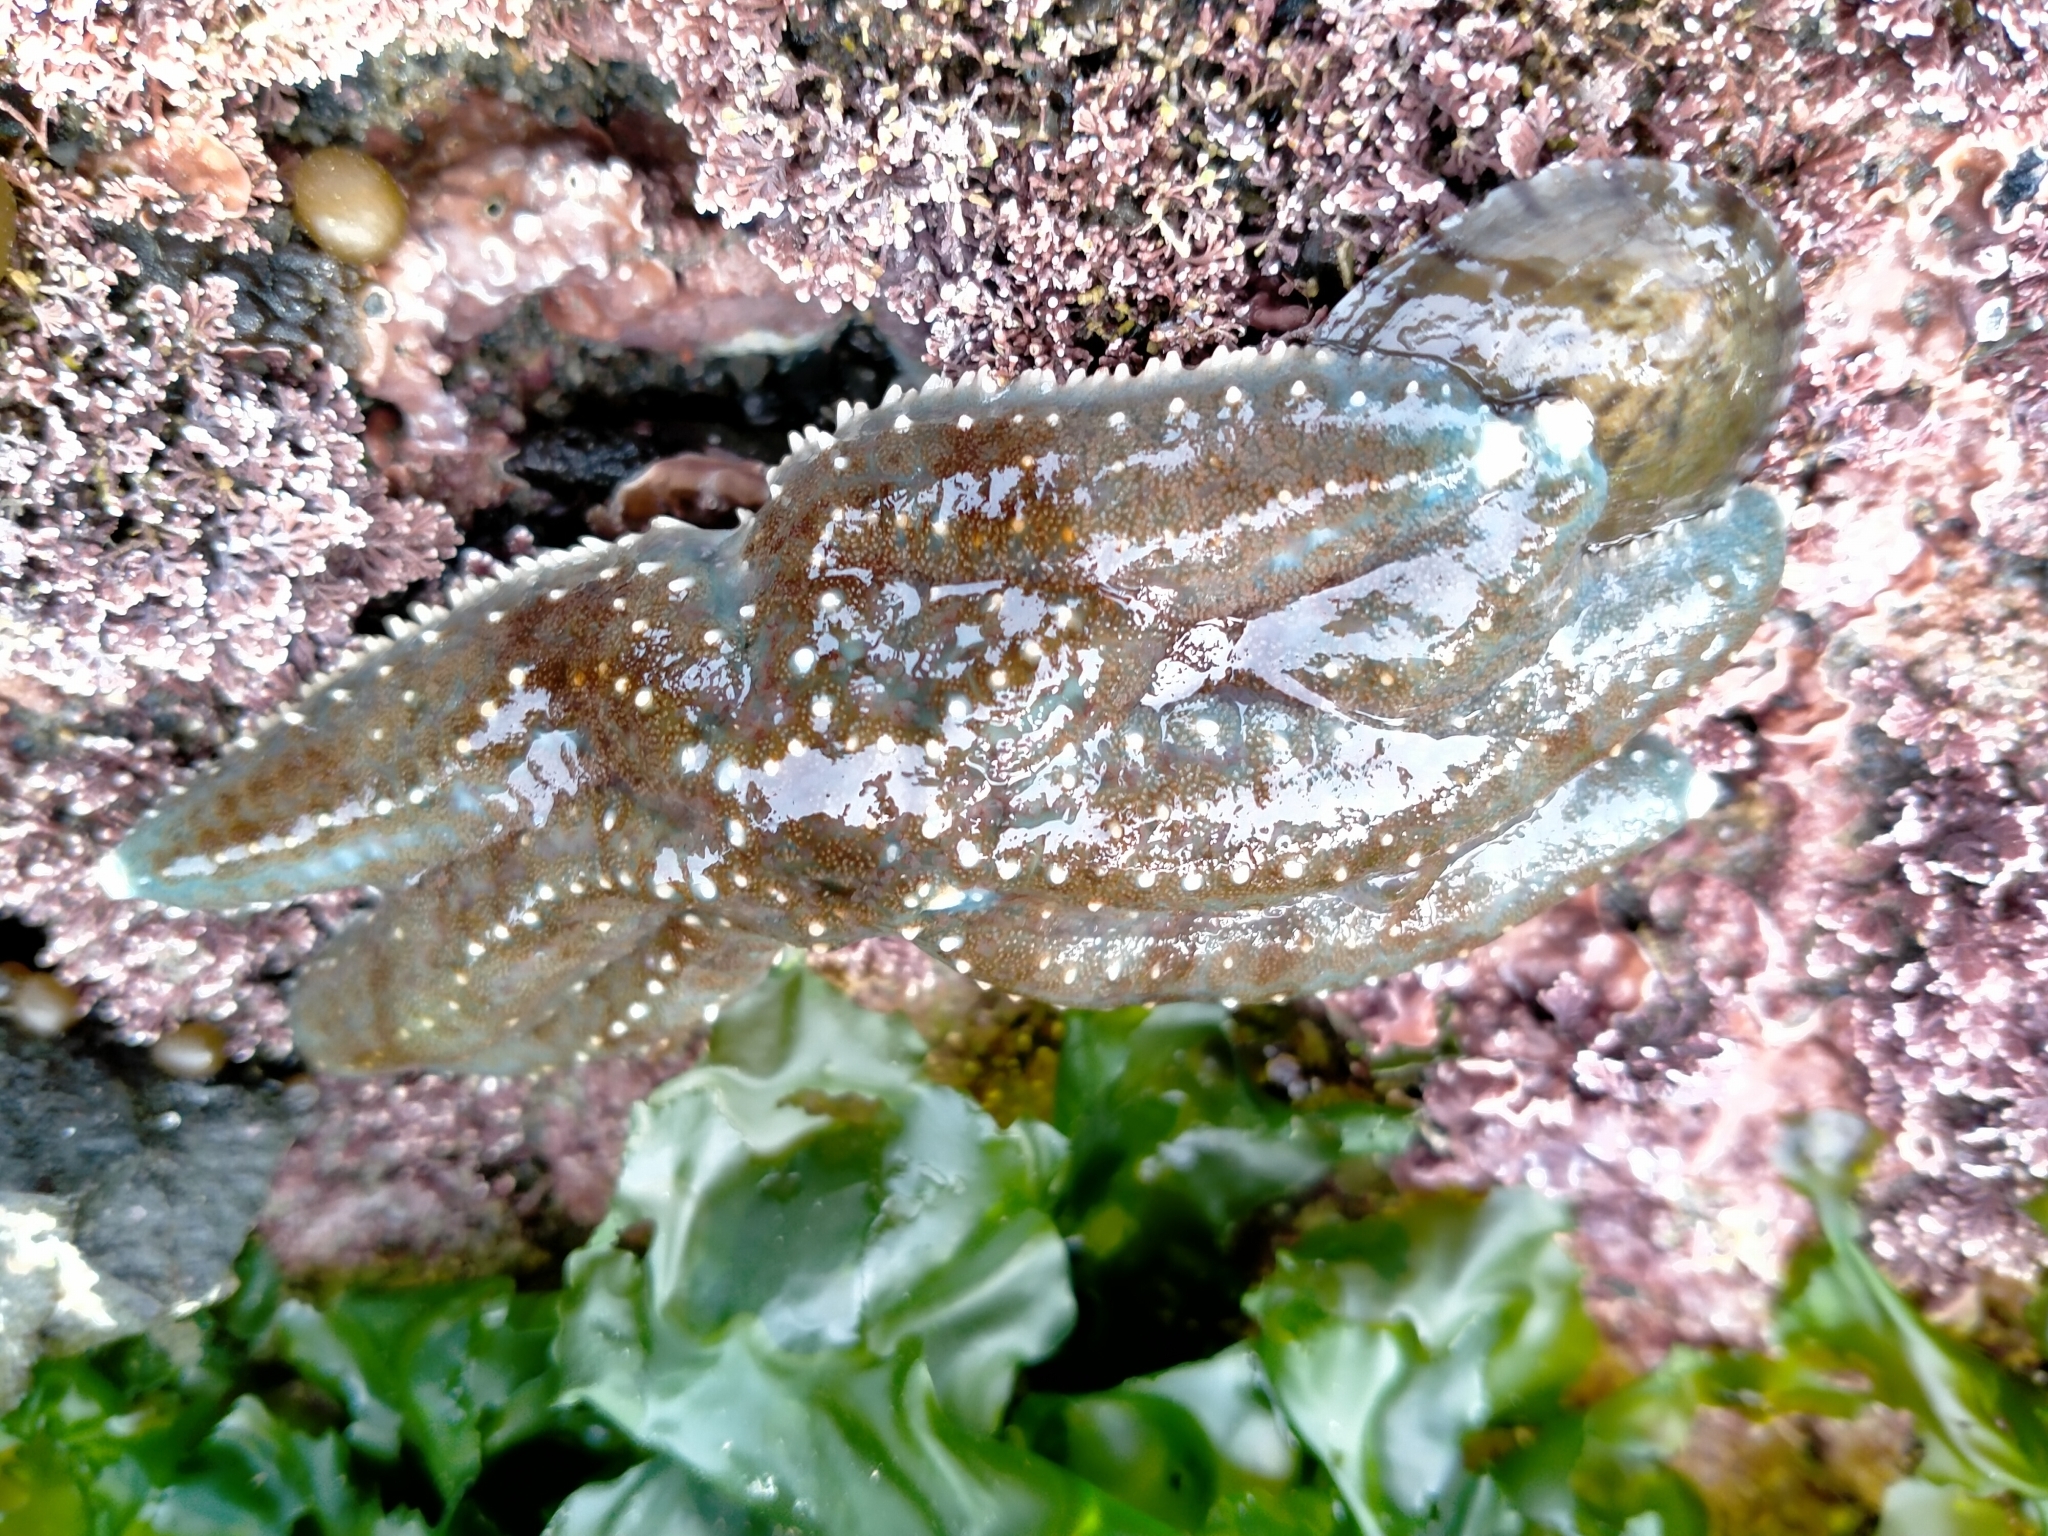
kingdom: Animalia
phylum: Echinodermata
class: Asteroidea
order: Forcipulatida
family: Asteriidae
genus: Astrostole
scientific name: Astrostole scabra
